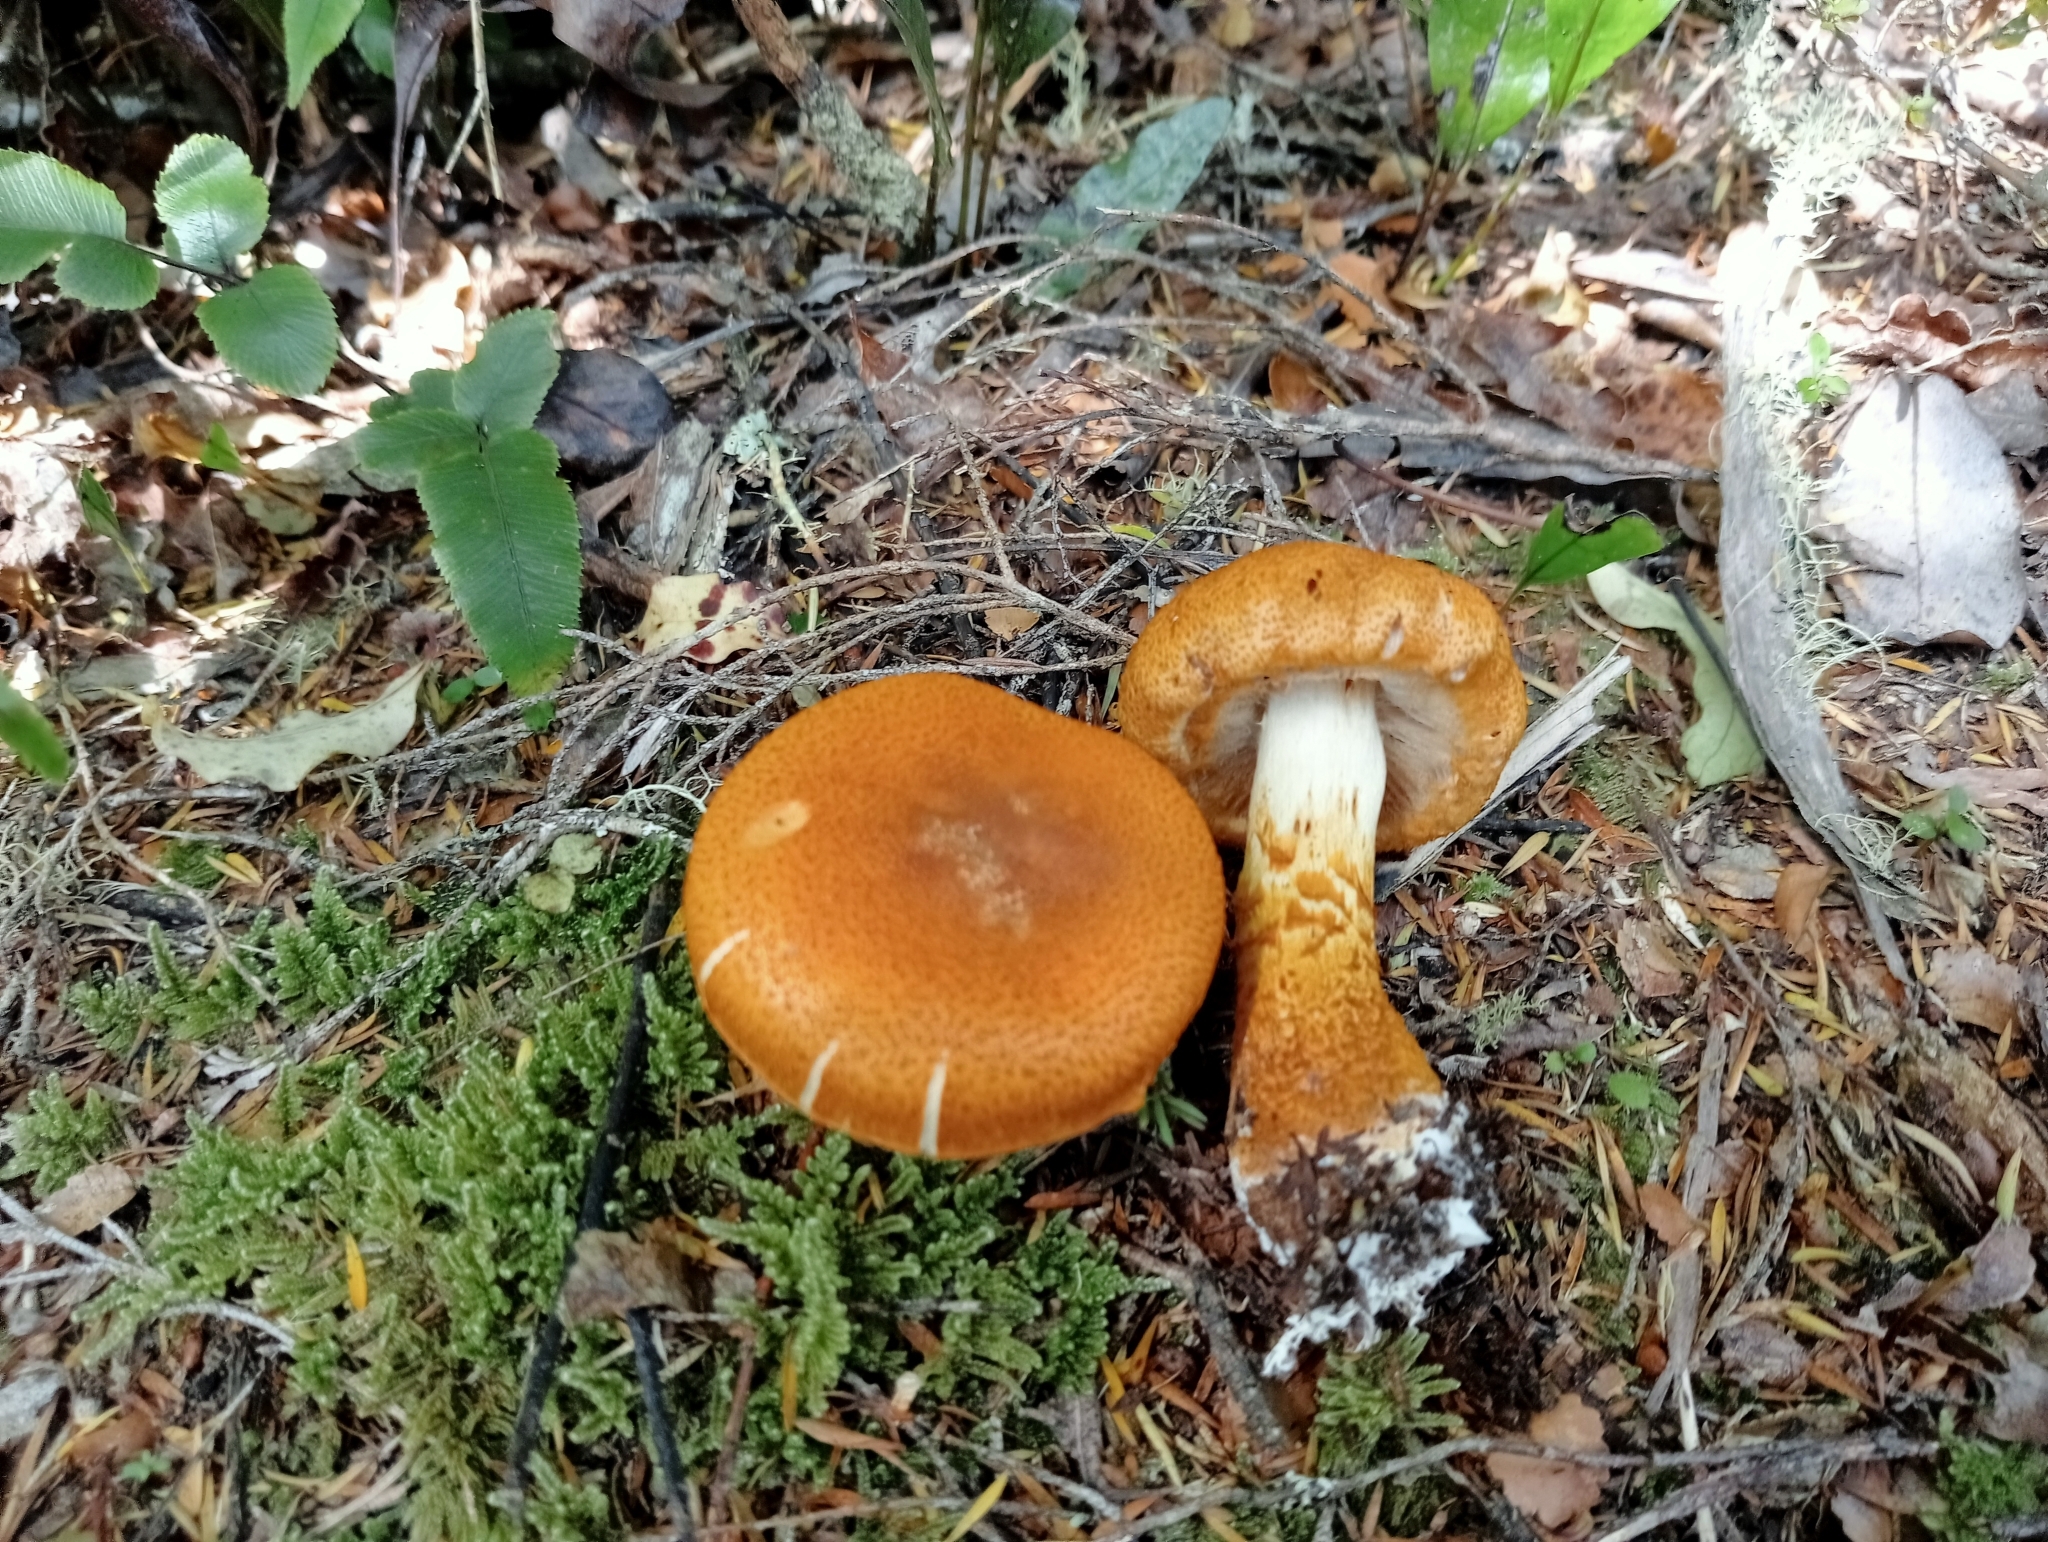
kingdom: Fungi
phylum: Basidiomycota
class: Agaricomycetes
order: Agaricales
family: Cortinariaceae
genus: Thaxterogaster
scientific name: Thaxterogaster castoreus
